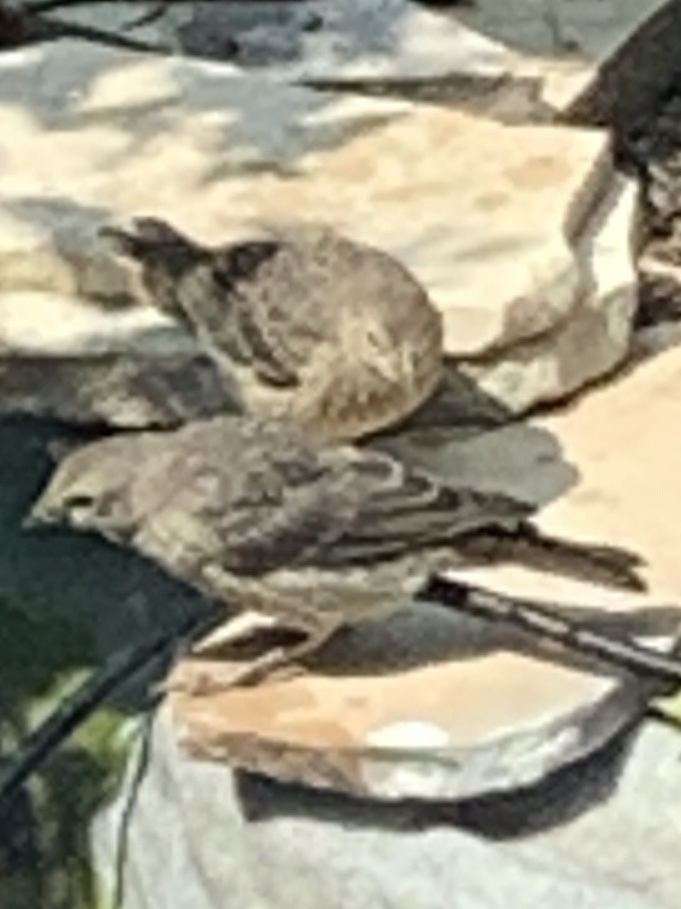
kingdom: Animalia
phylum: Chordata
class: Aves
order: Passeriformes
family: Icteridae
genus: Molothrus
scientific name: Molothrus ater
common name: Brown-headed cowbird
